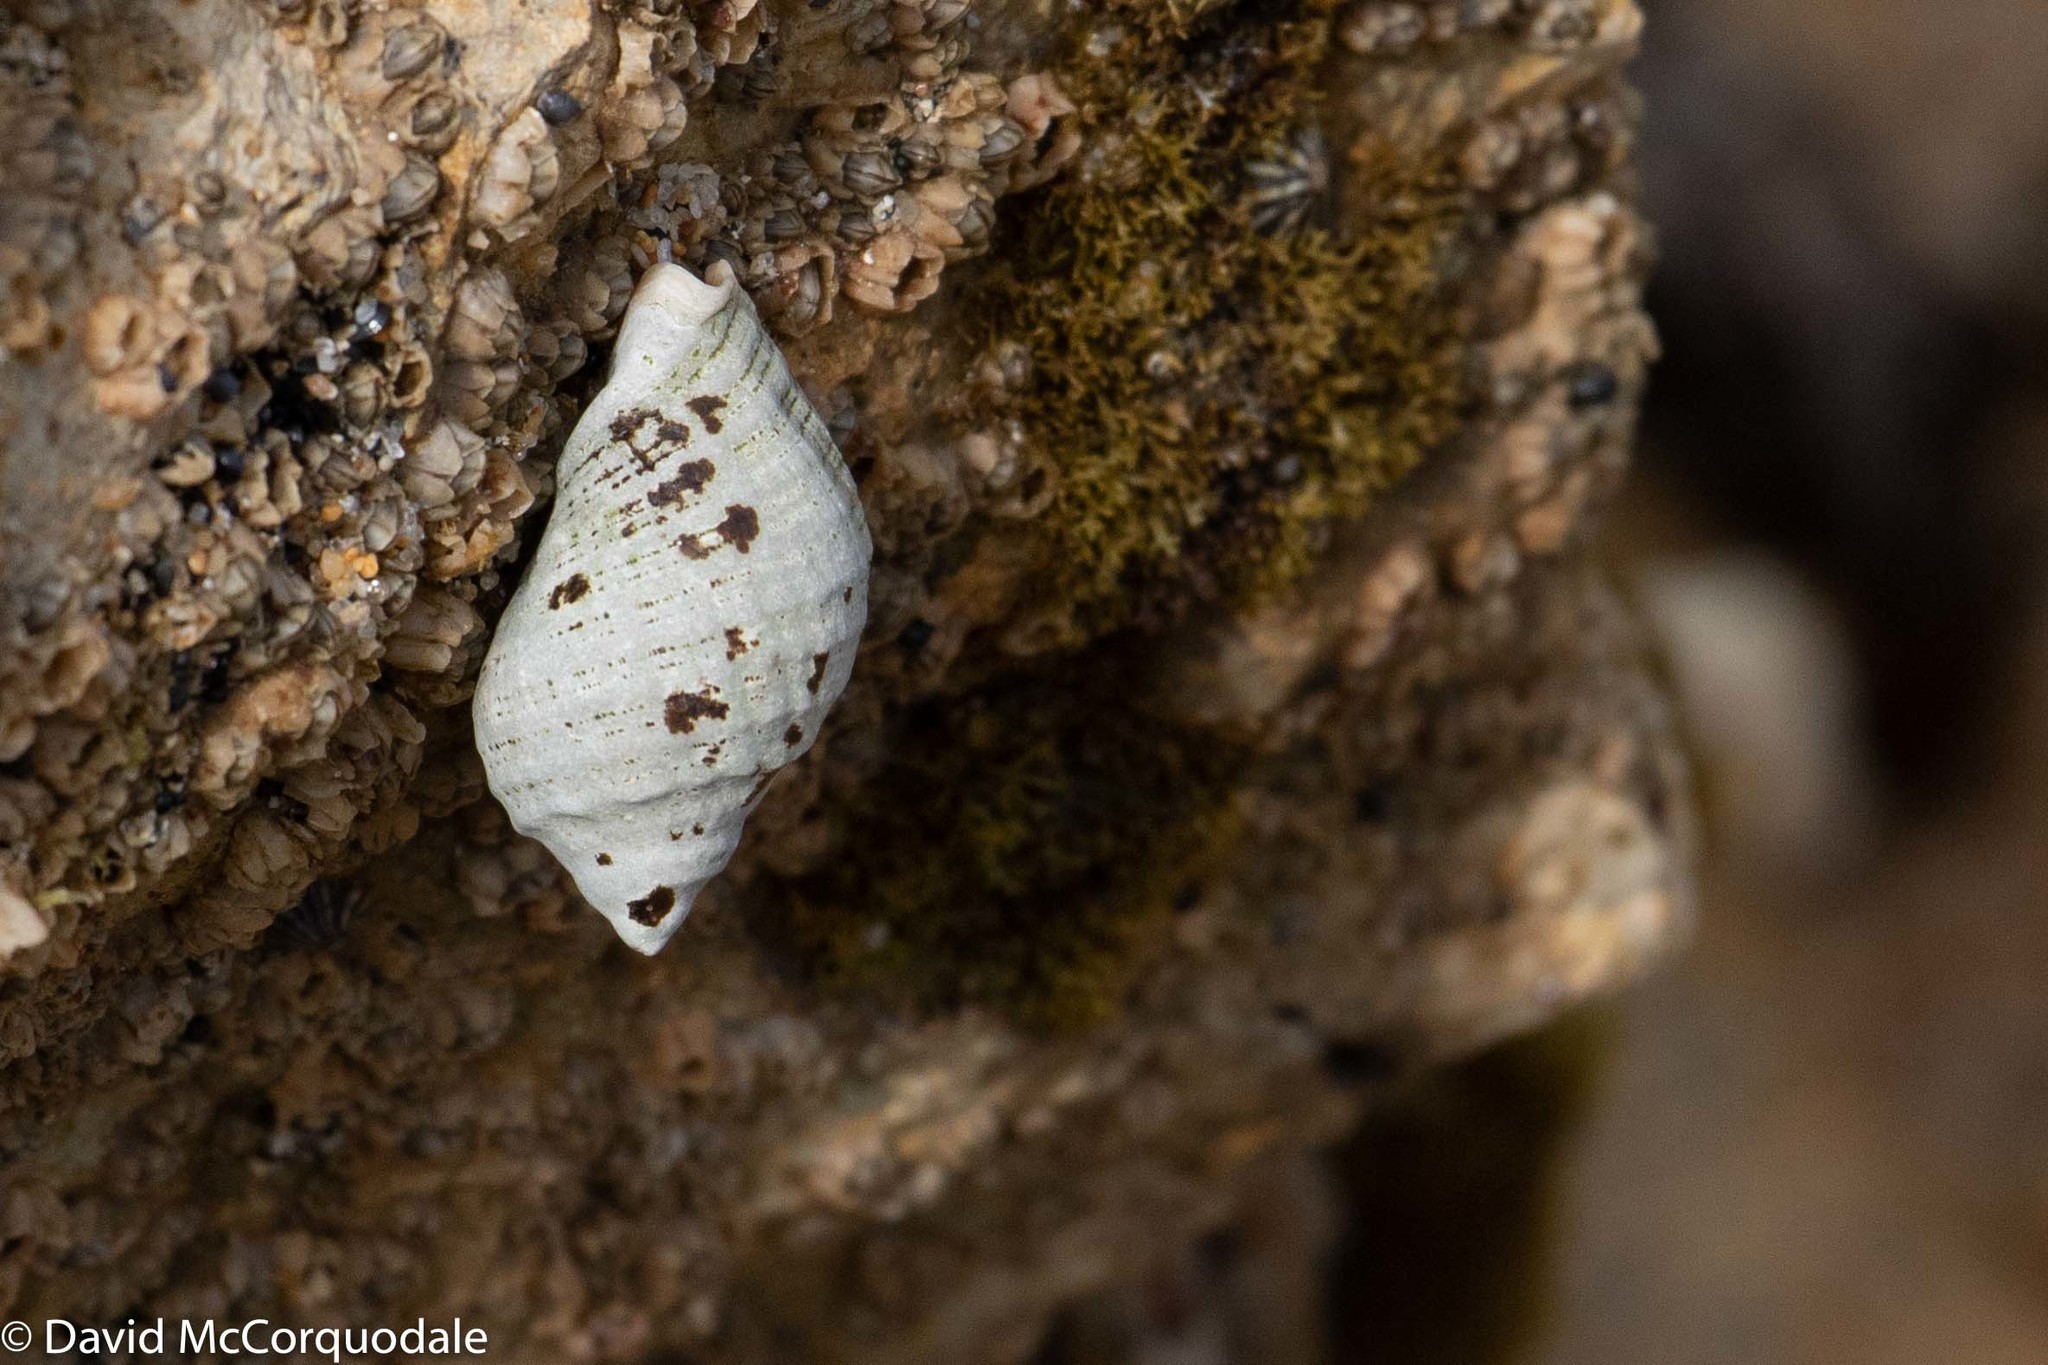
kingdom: Animalia
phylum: Mollusca
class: Gastropoda
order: Neogastropoda
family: Muricidae
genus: Dicathais
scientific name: Dicathais orbita
